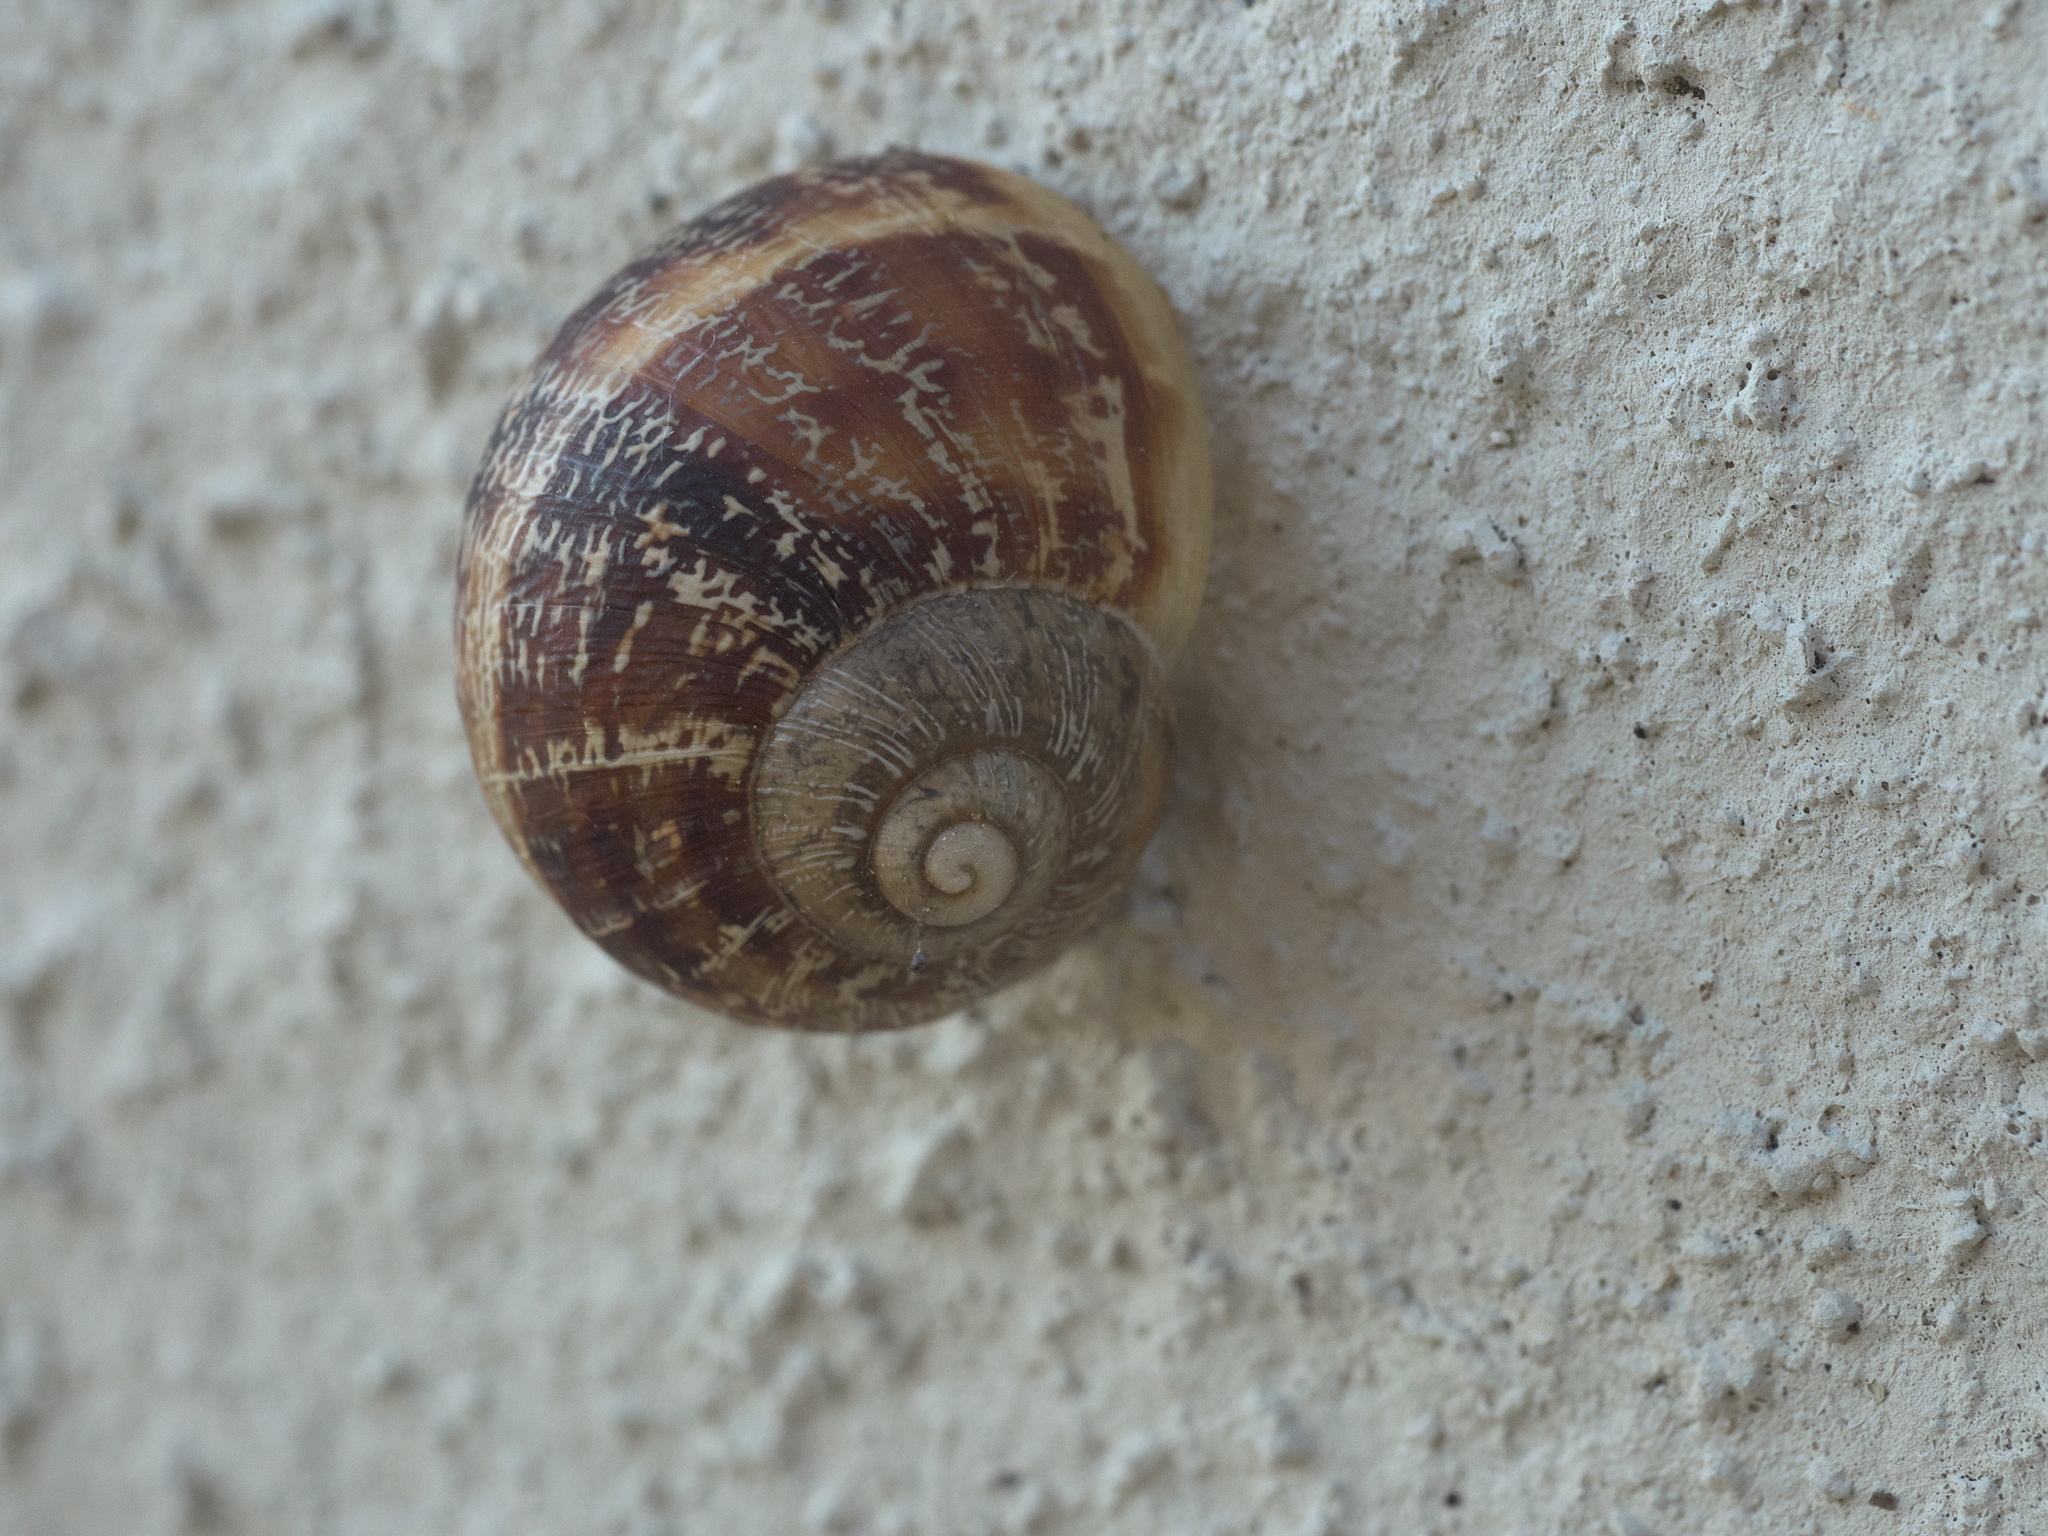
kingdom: Animalia
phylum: Mollusca
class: Gastropoda
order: Stylommatophora
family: Helicidae
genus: Cornu
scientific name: Cornu aspersum
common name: Brown garden snail
